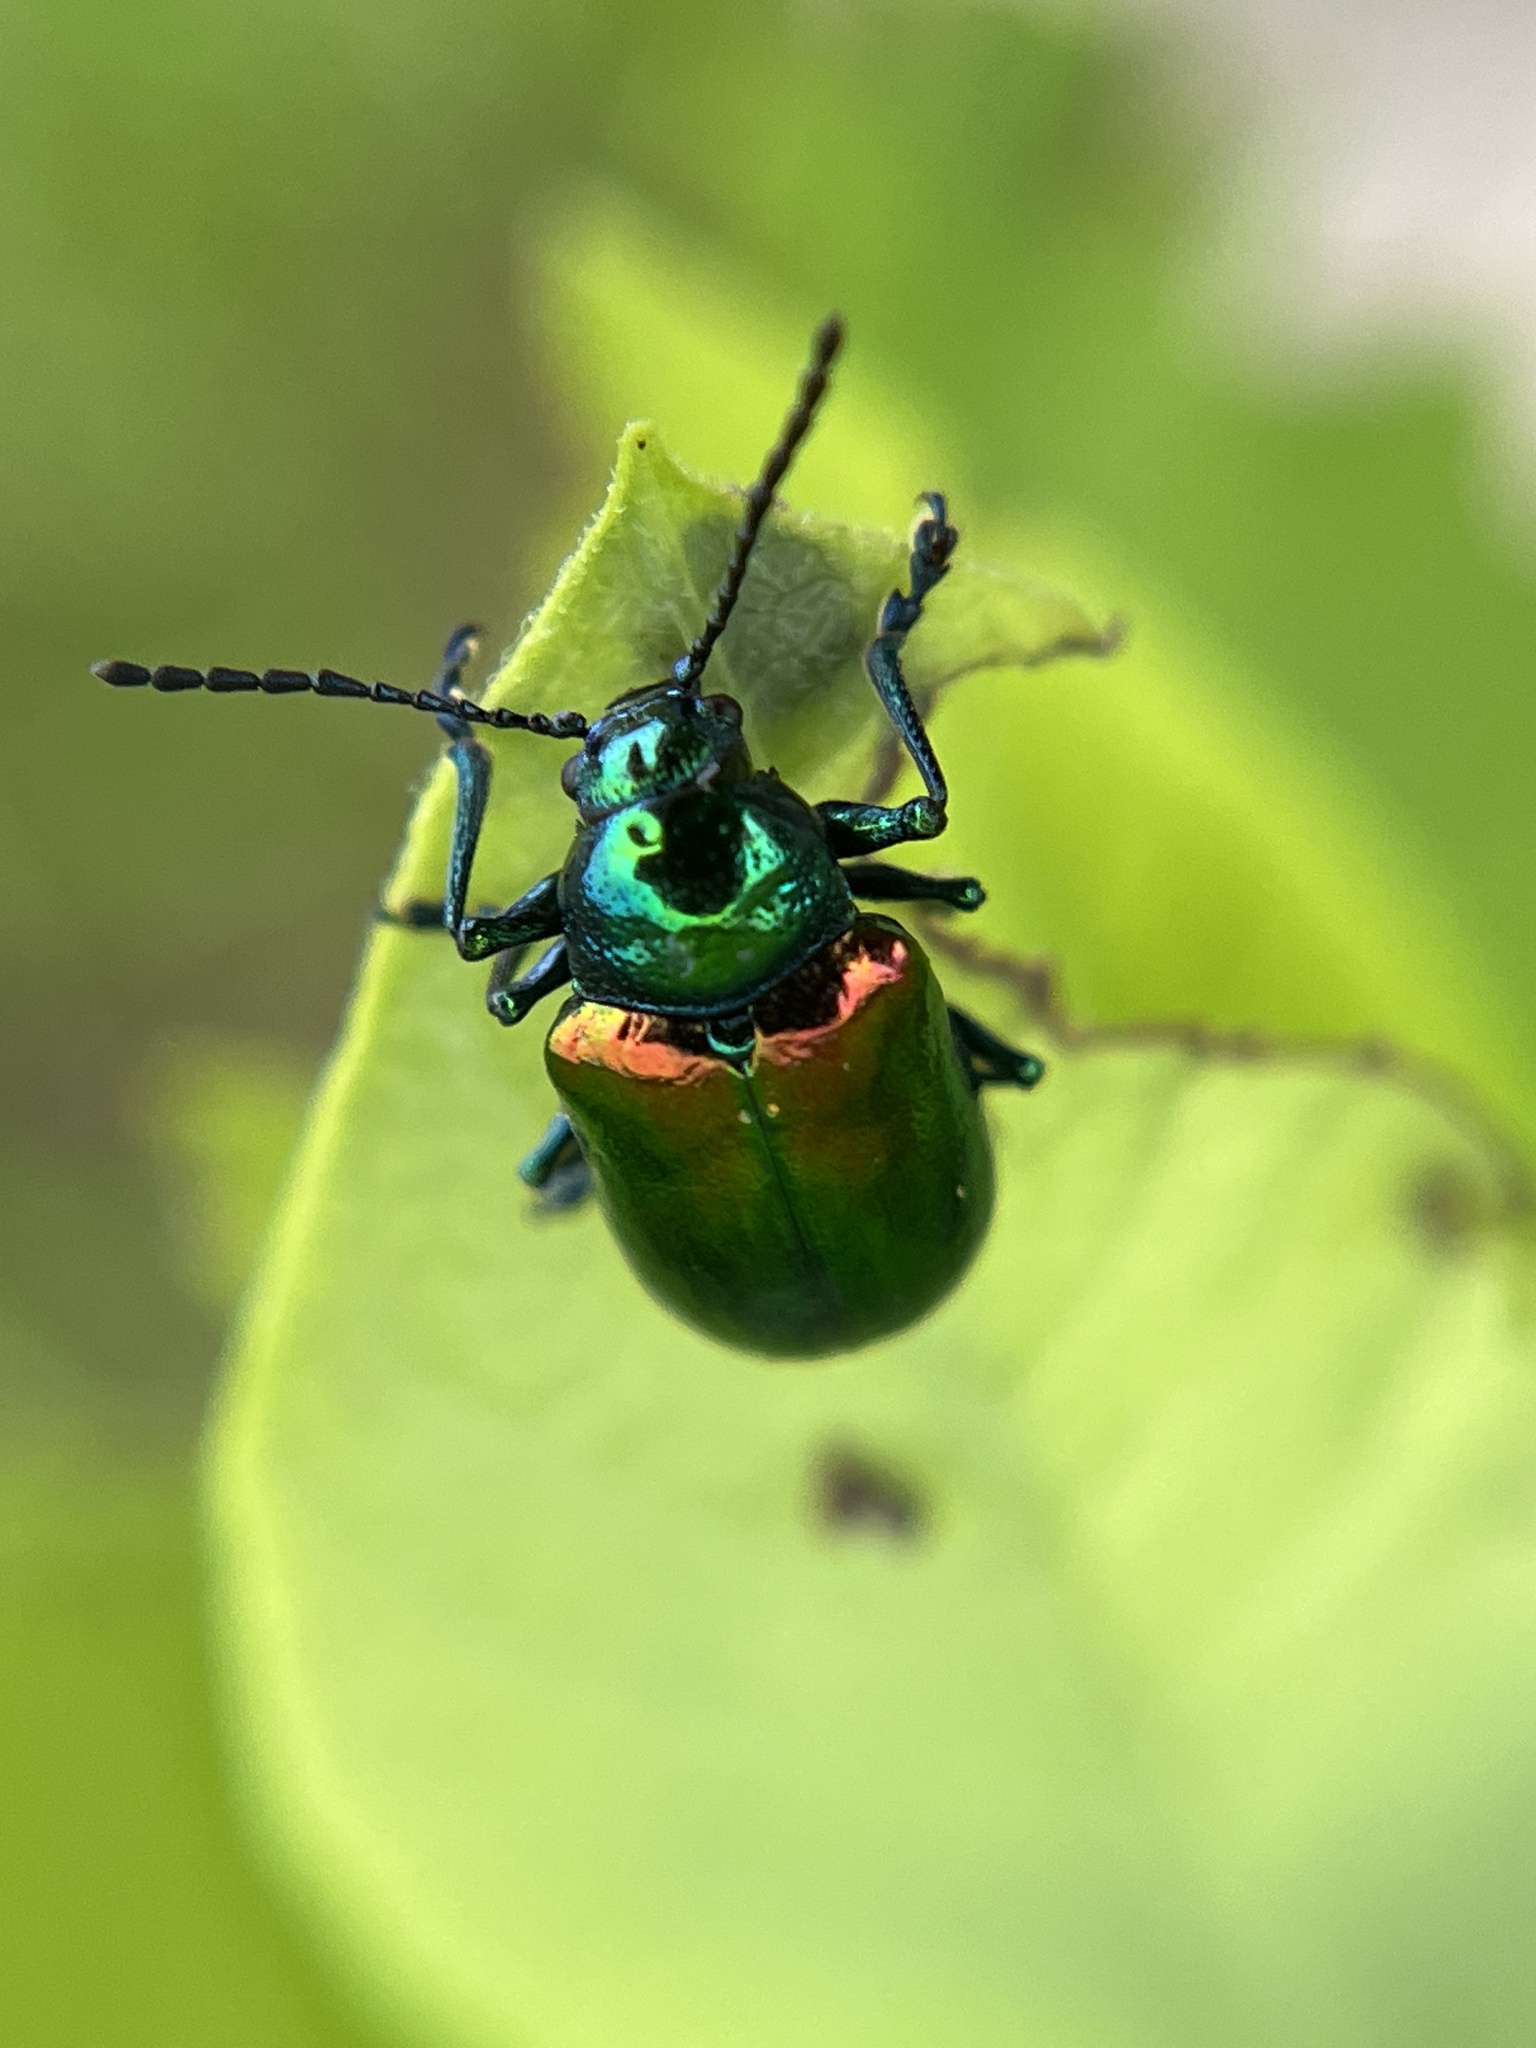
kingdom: Animalia
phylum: Arthropoda
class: Insecta
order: Coleoptera
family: Chrysomelidae
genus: Chrysochus
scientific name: Chrysochus auratus
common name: Dogbane leaf beetle
